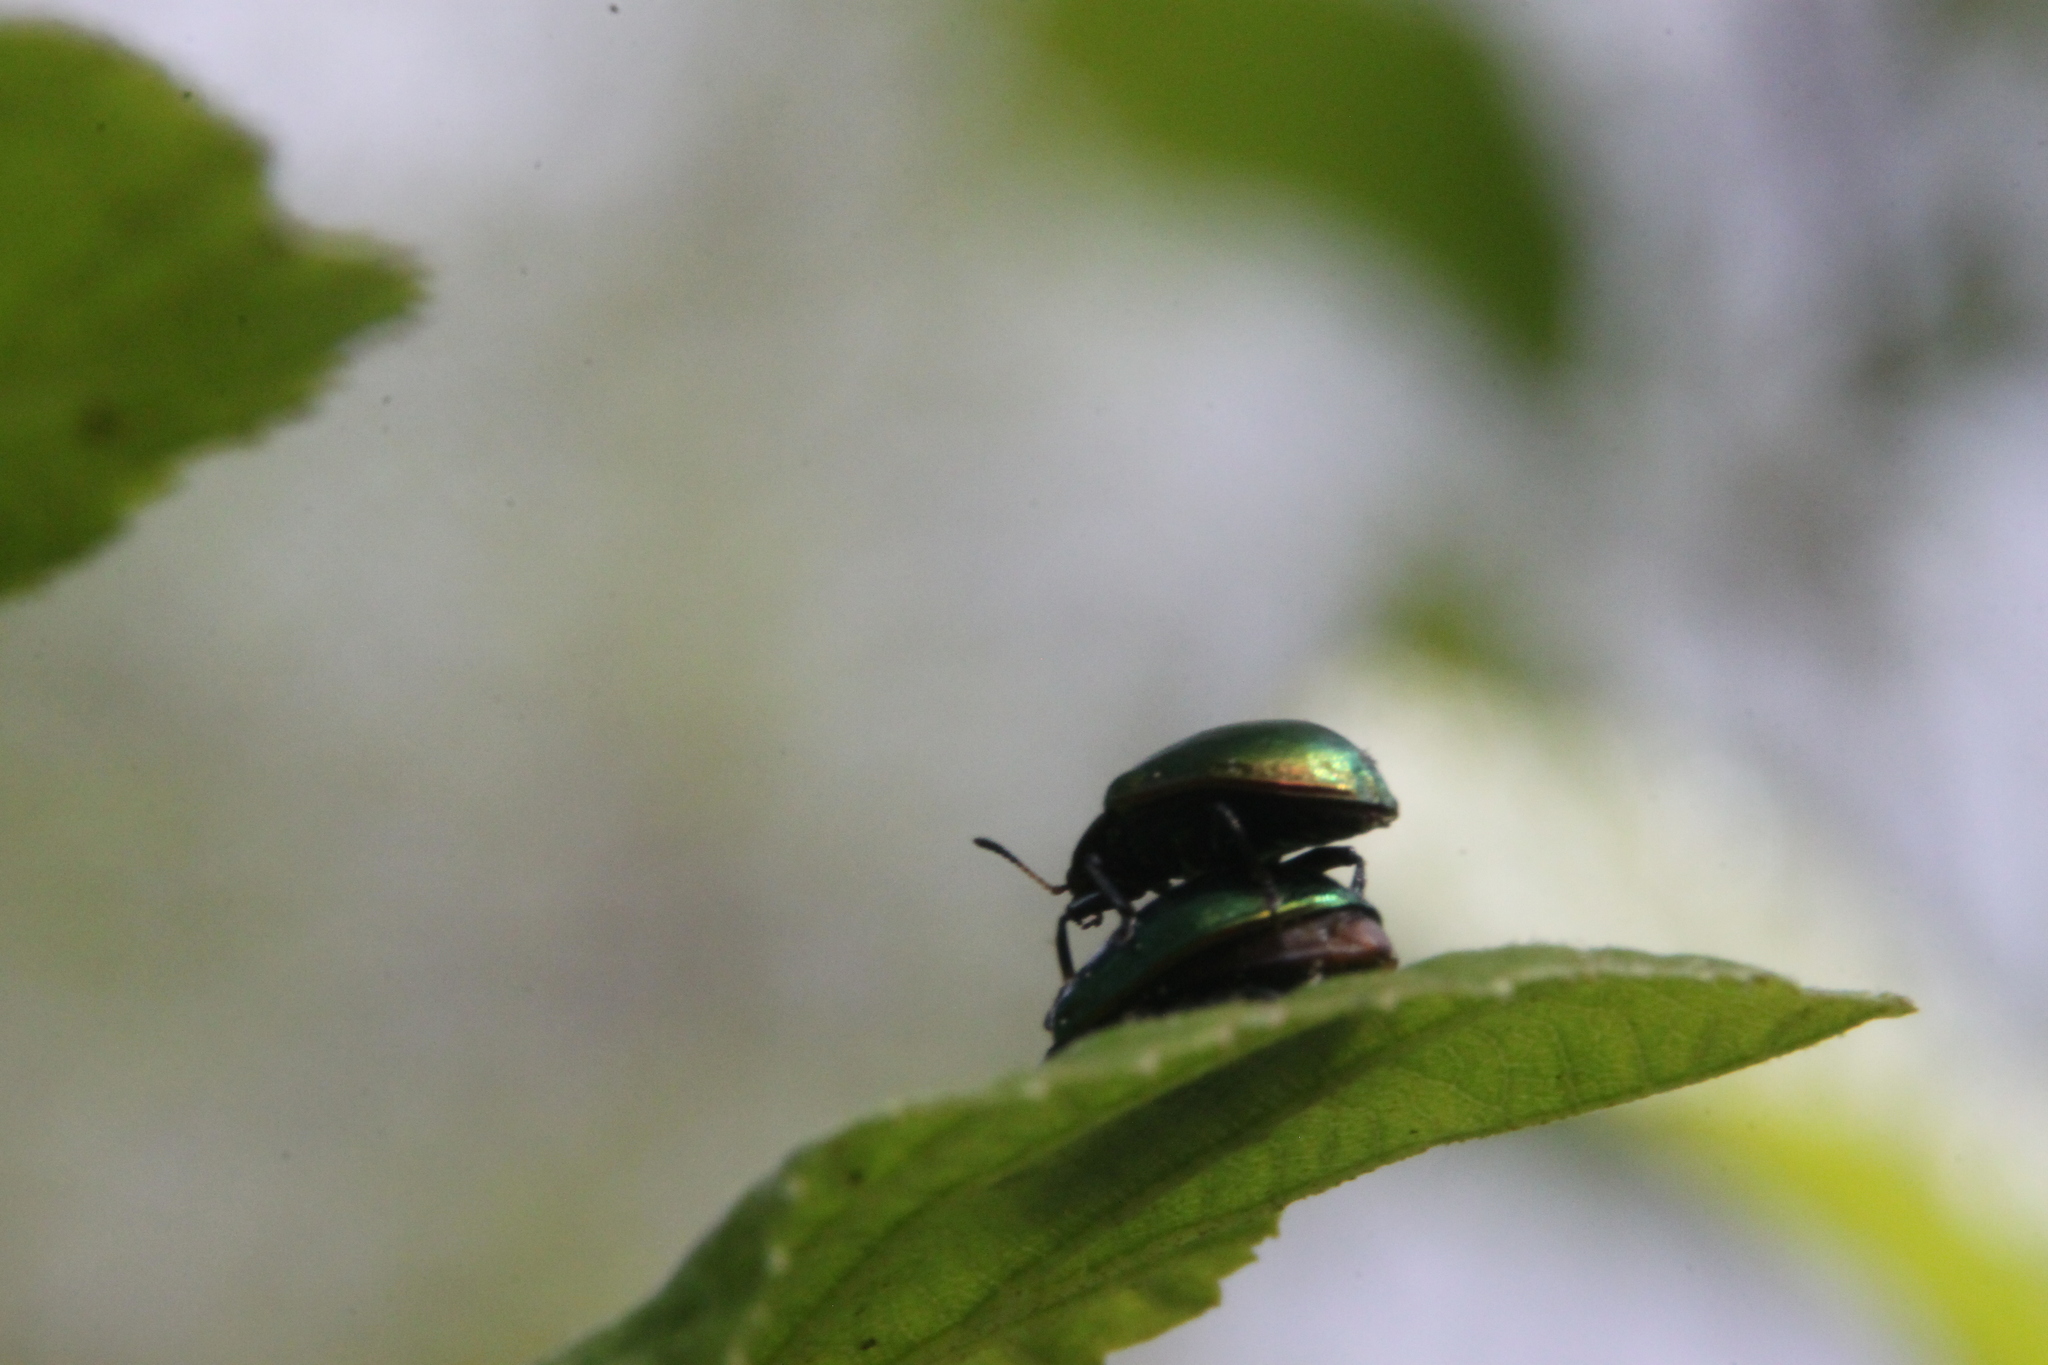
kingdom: Animalia
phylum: Arthropoda
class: Insecta
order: Coleoptera
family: Chrysomelidae
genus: Plagiosterna
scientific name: Plagiosterna aenea
